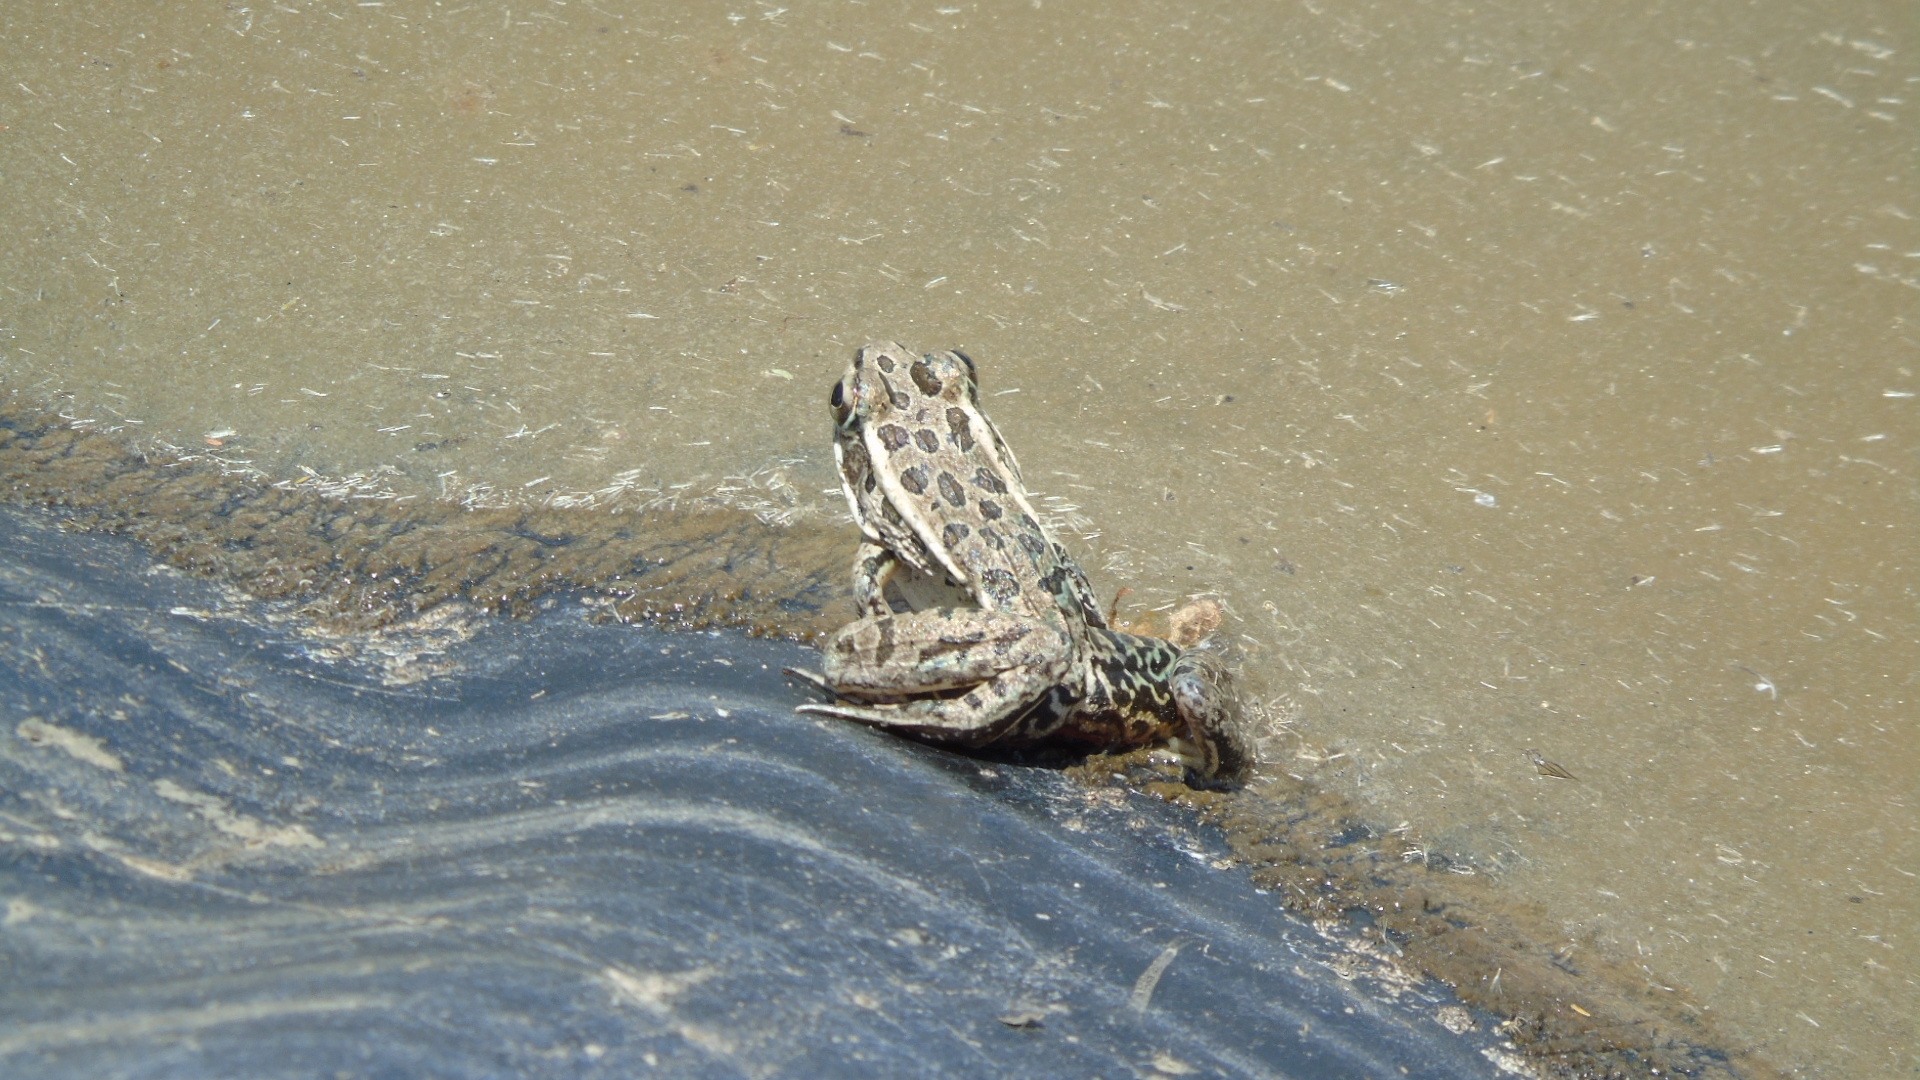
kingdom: Animalia
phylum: Chordata
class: Amphibia
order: Anura
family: Ranidae
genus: Lithobates
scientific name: Lithobates
